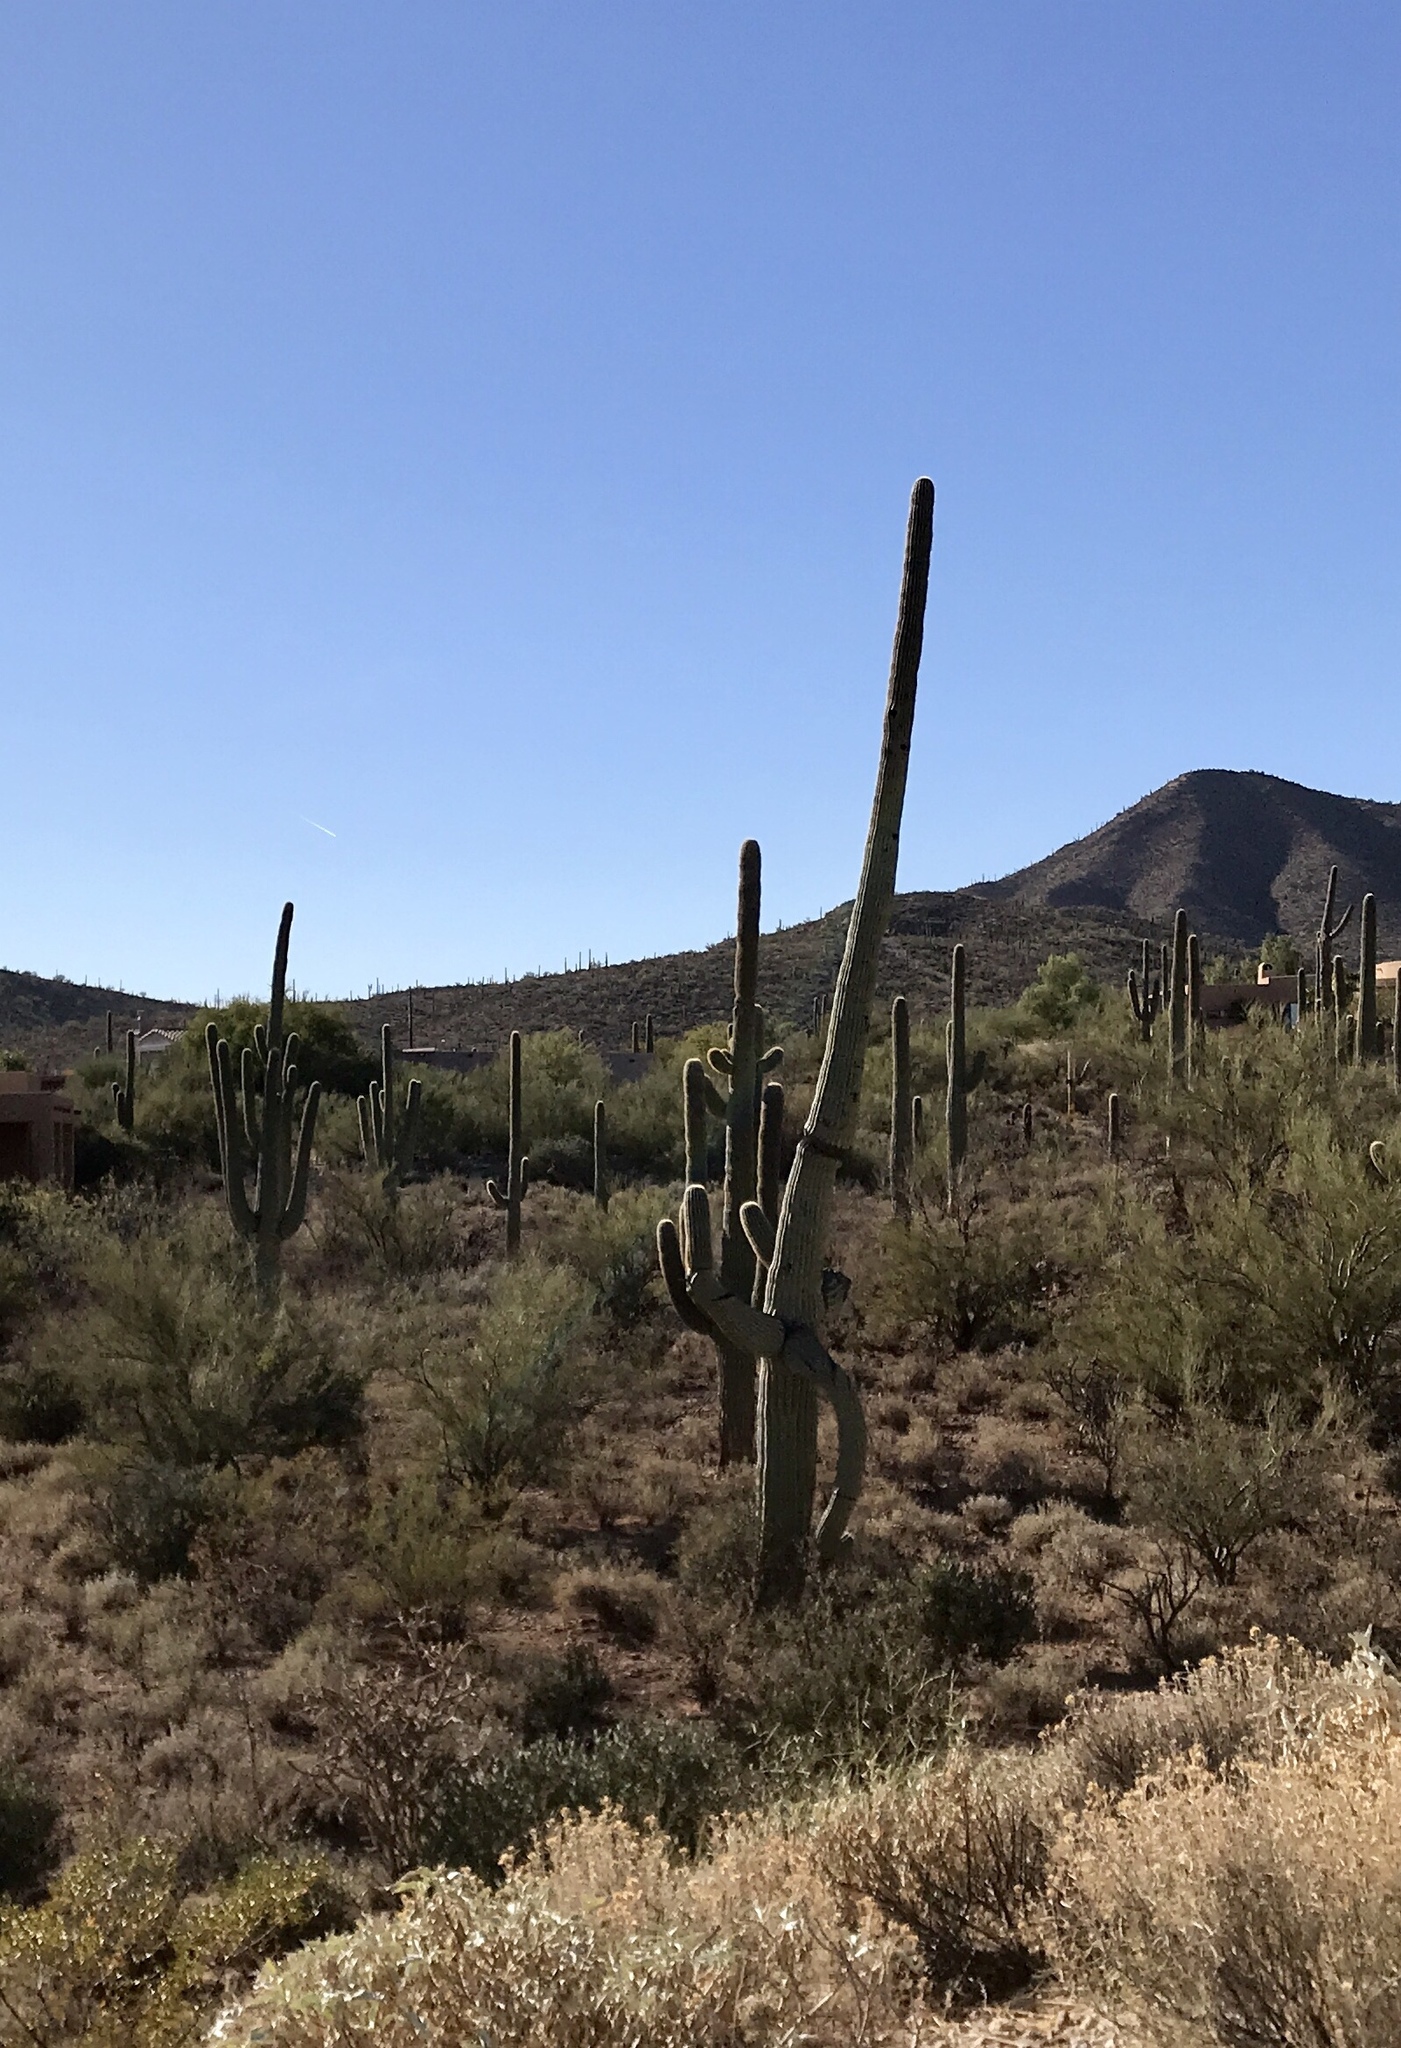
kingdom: Plantae
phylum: Tracheophyta
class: Magnoliopsida
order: Caryophyllales
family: Cactaceae
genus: Carnegiea
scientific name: Carnegiea gigantea
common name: Saguaro
